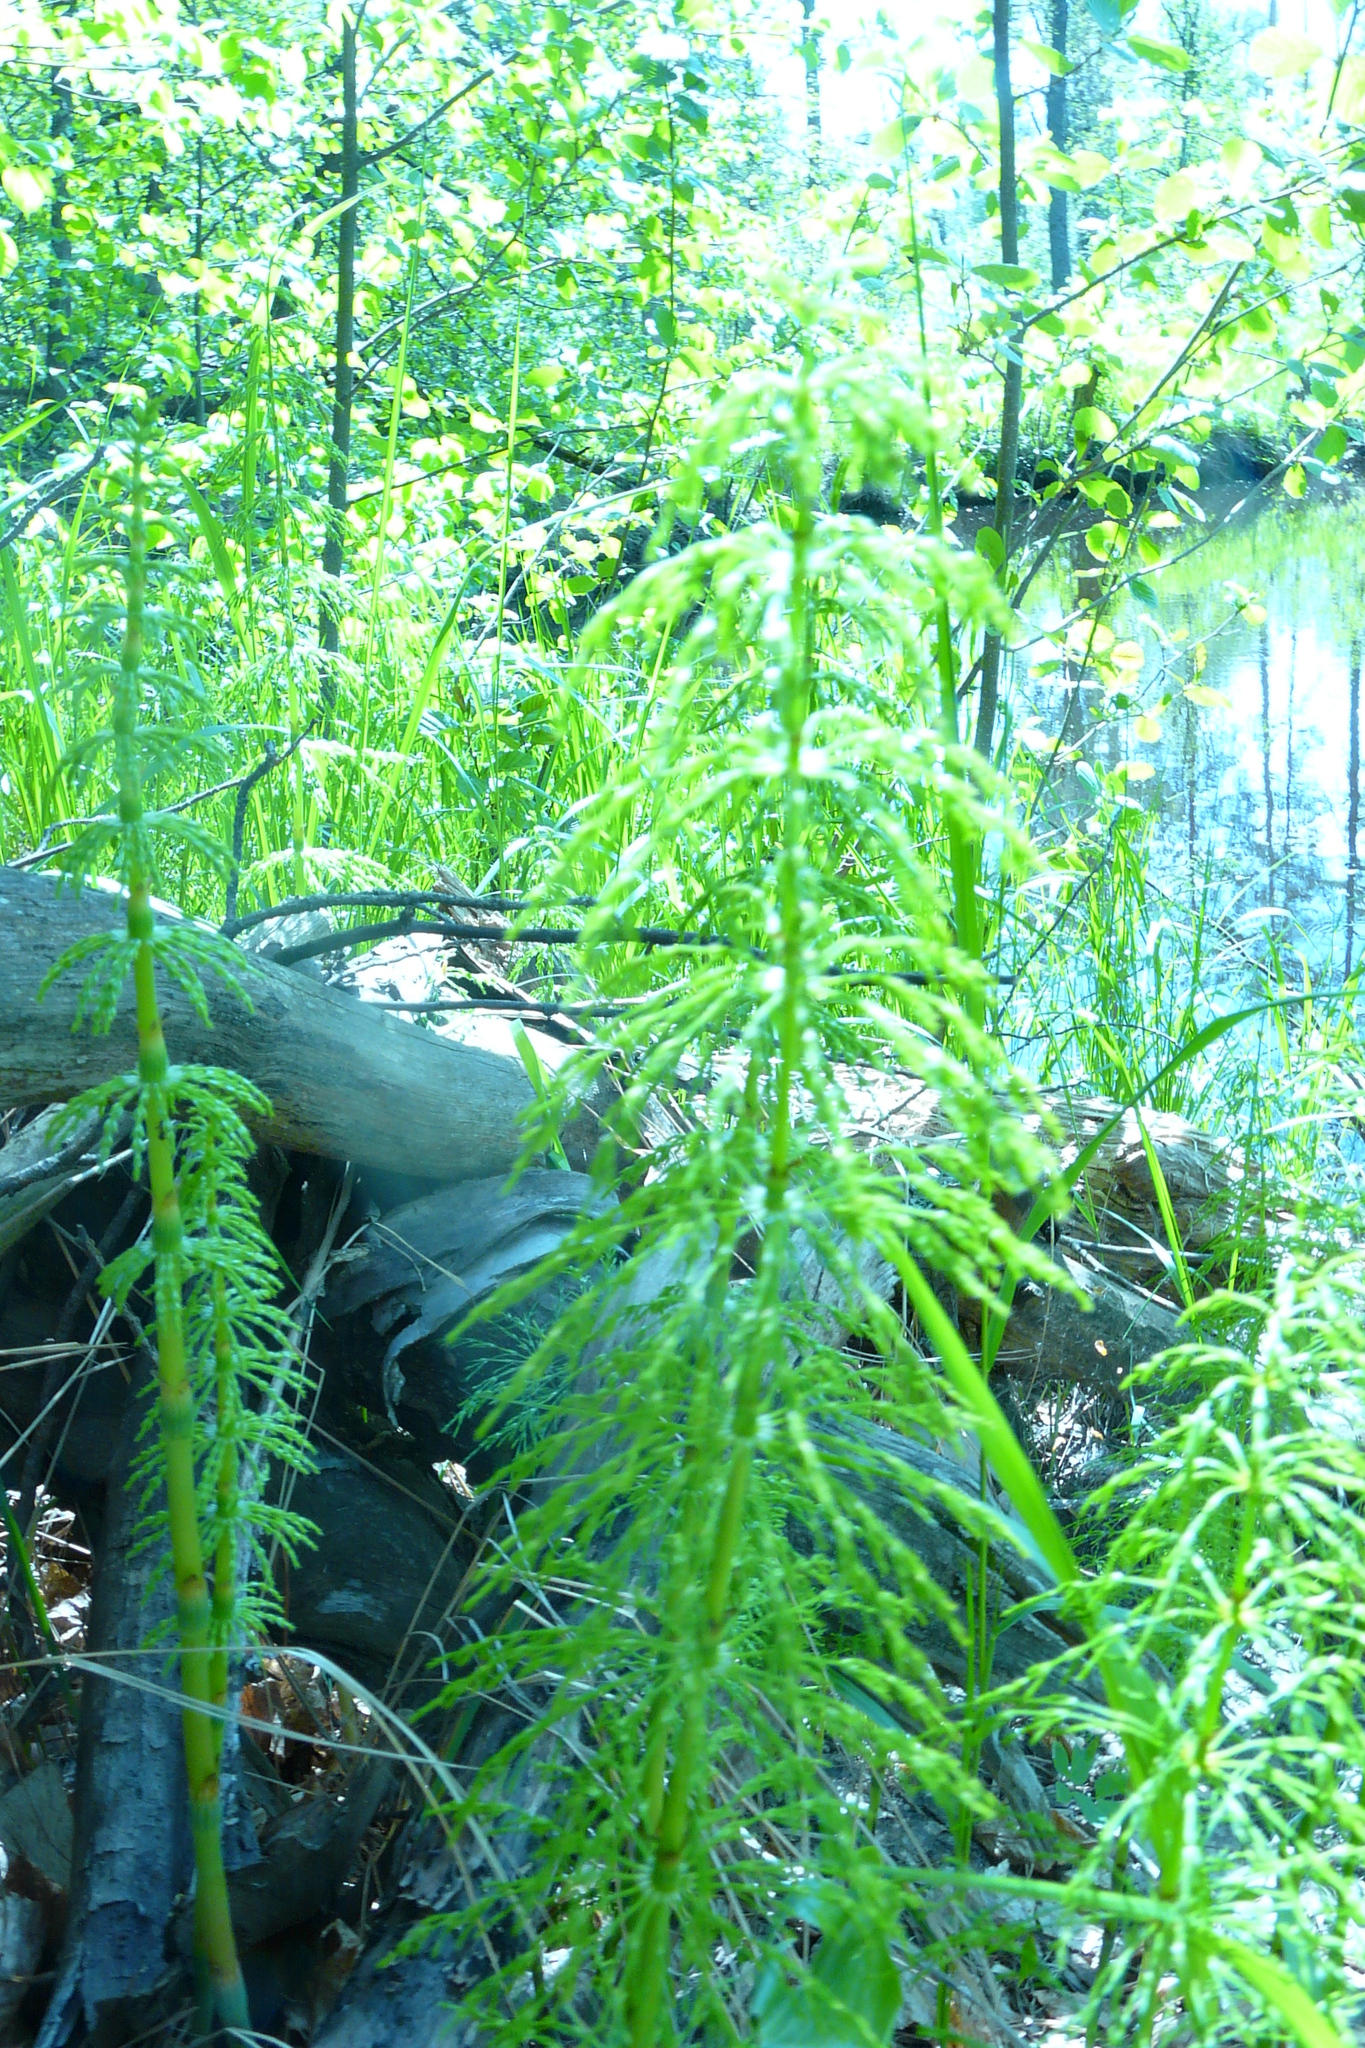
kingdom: Plantae
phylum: Tracheophyta
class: Polypodiopsida
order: Equisetales
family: Equisetaceae
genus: Equisetum
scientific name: Equisetum sylvaticum
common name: Wood horsetail
